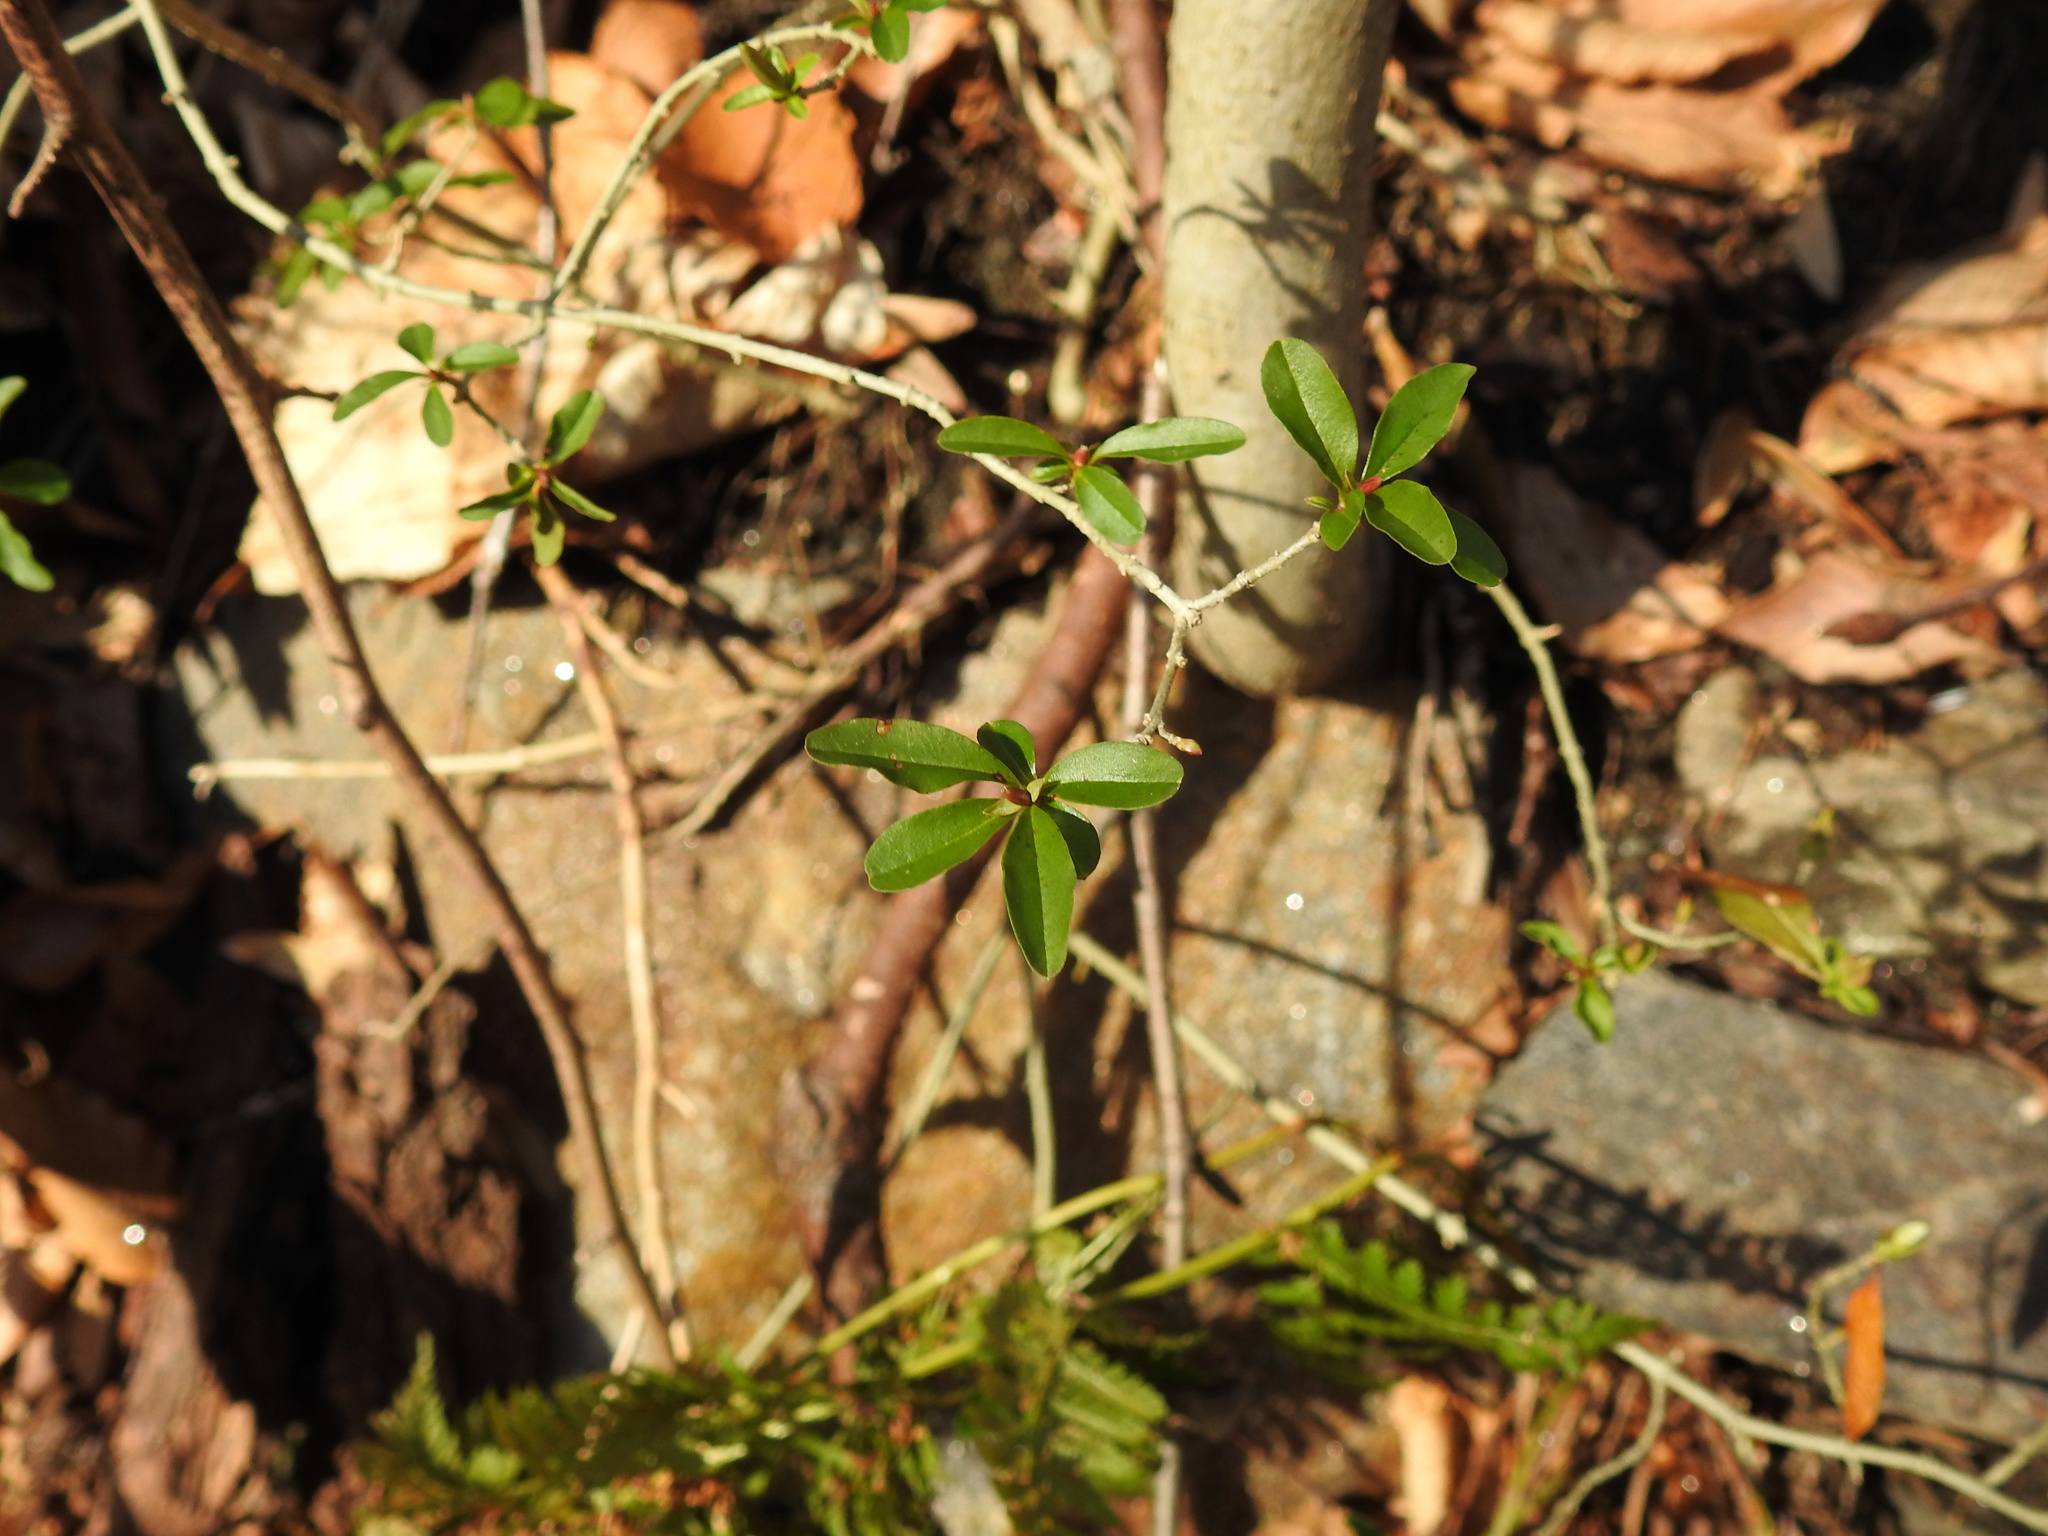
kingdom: Plantae
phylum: Tracheophyta
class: Magnoliopsida
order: Lamiales
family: Oleaceae
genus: Ligustrum
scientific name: Ligustrum obtusifolium
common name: Border privet
